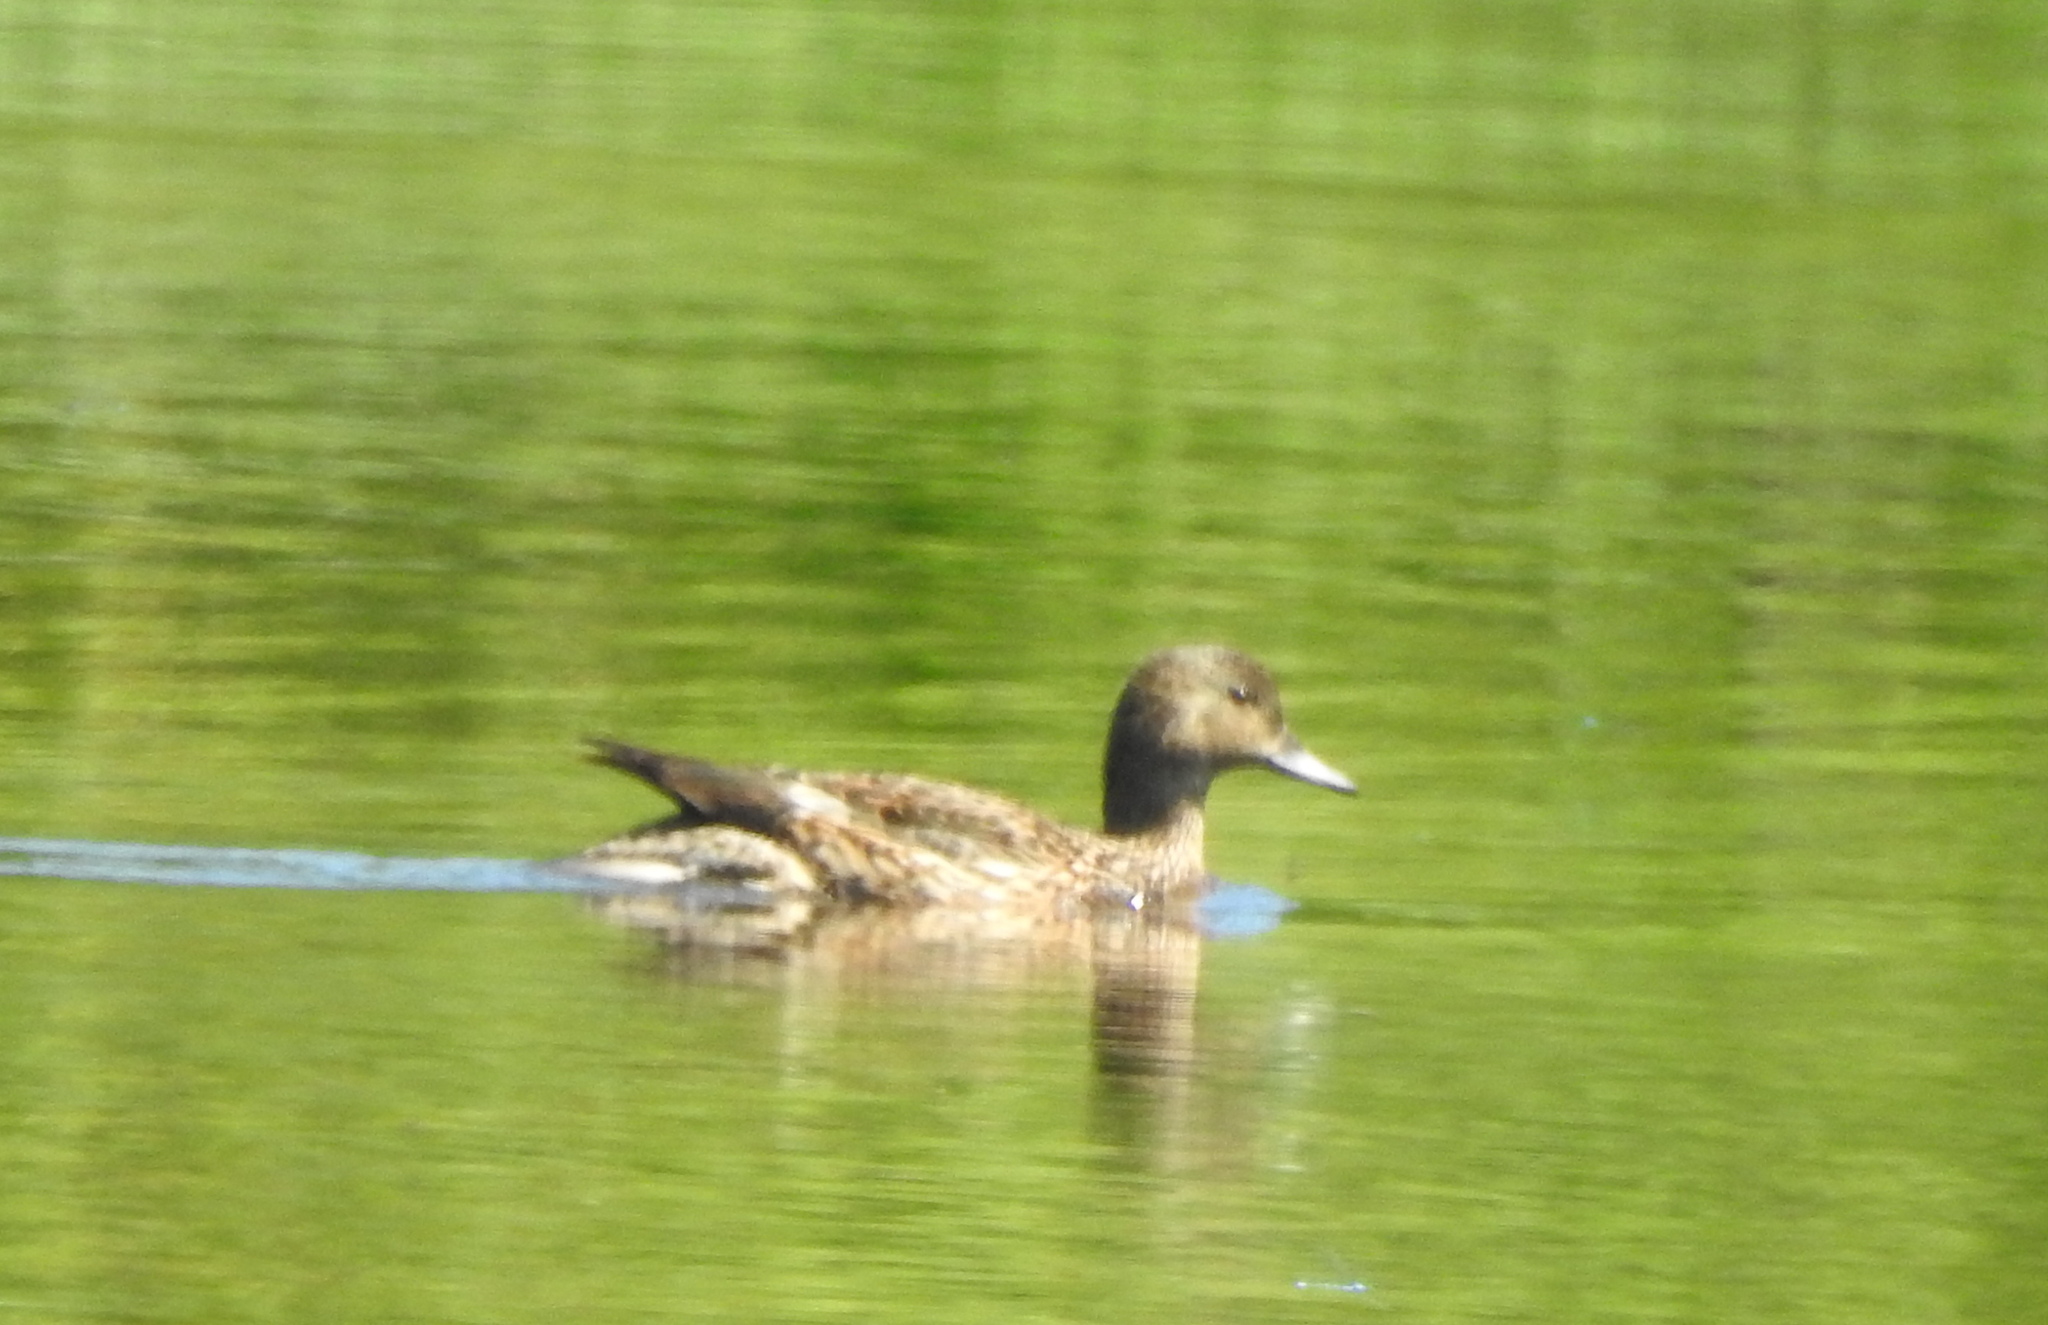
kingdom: Animalia
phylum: Chordata
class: Aves
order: Anseriformes
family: Anatidae
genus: Mareca
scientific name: Mareca falcata
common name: Falcated duck
